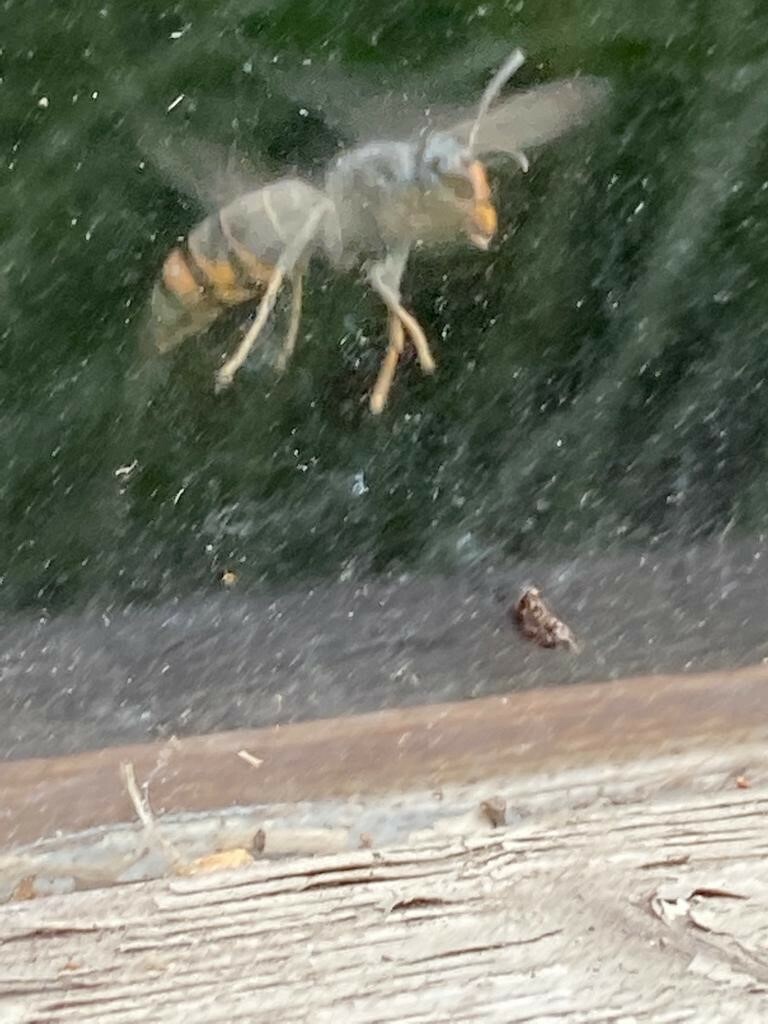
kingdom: Animalia
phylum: Arthropoda
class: Insecta
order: Hymenoptera
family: Vespidae
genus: Vespa
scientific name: Vespa velutina
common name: Asian hornet
